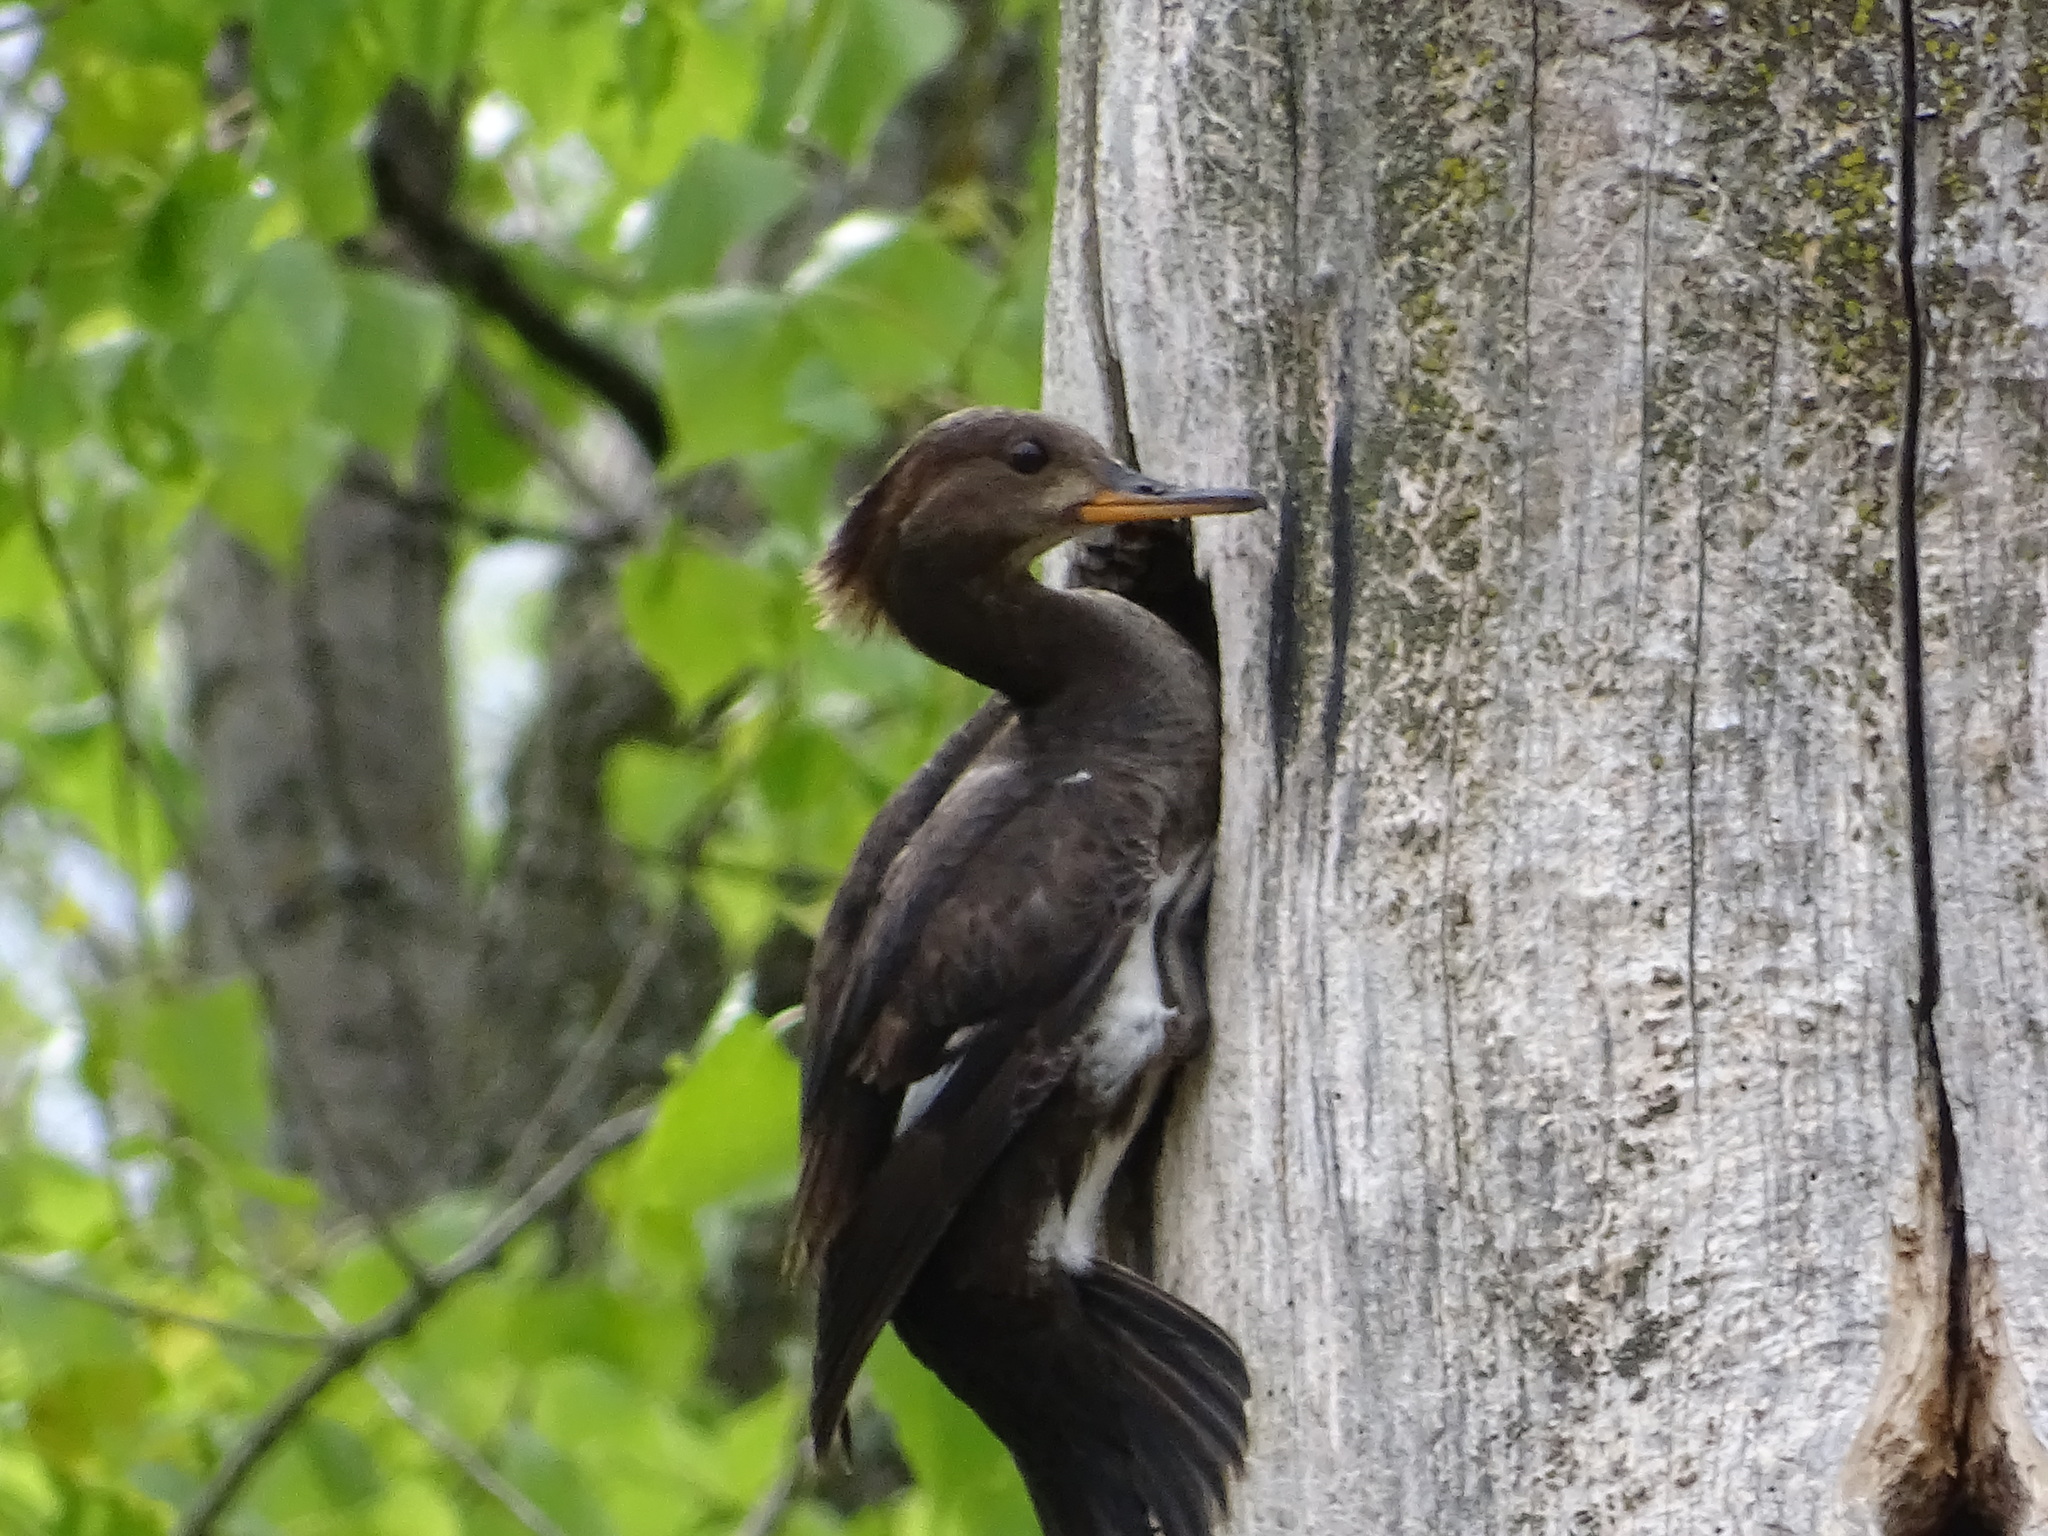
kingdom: Animalia
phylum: Chordata
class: Aves
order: Anseriformes
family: Anatidae
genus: Lophodytes
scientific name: Lophodytes cucullatus
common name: Hooded merganser
